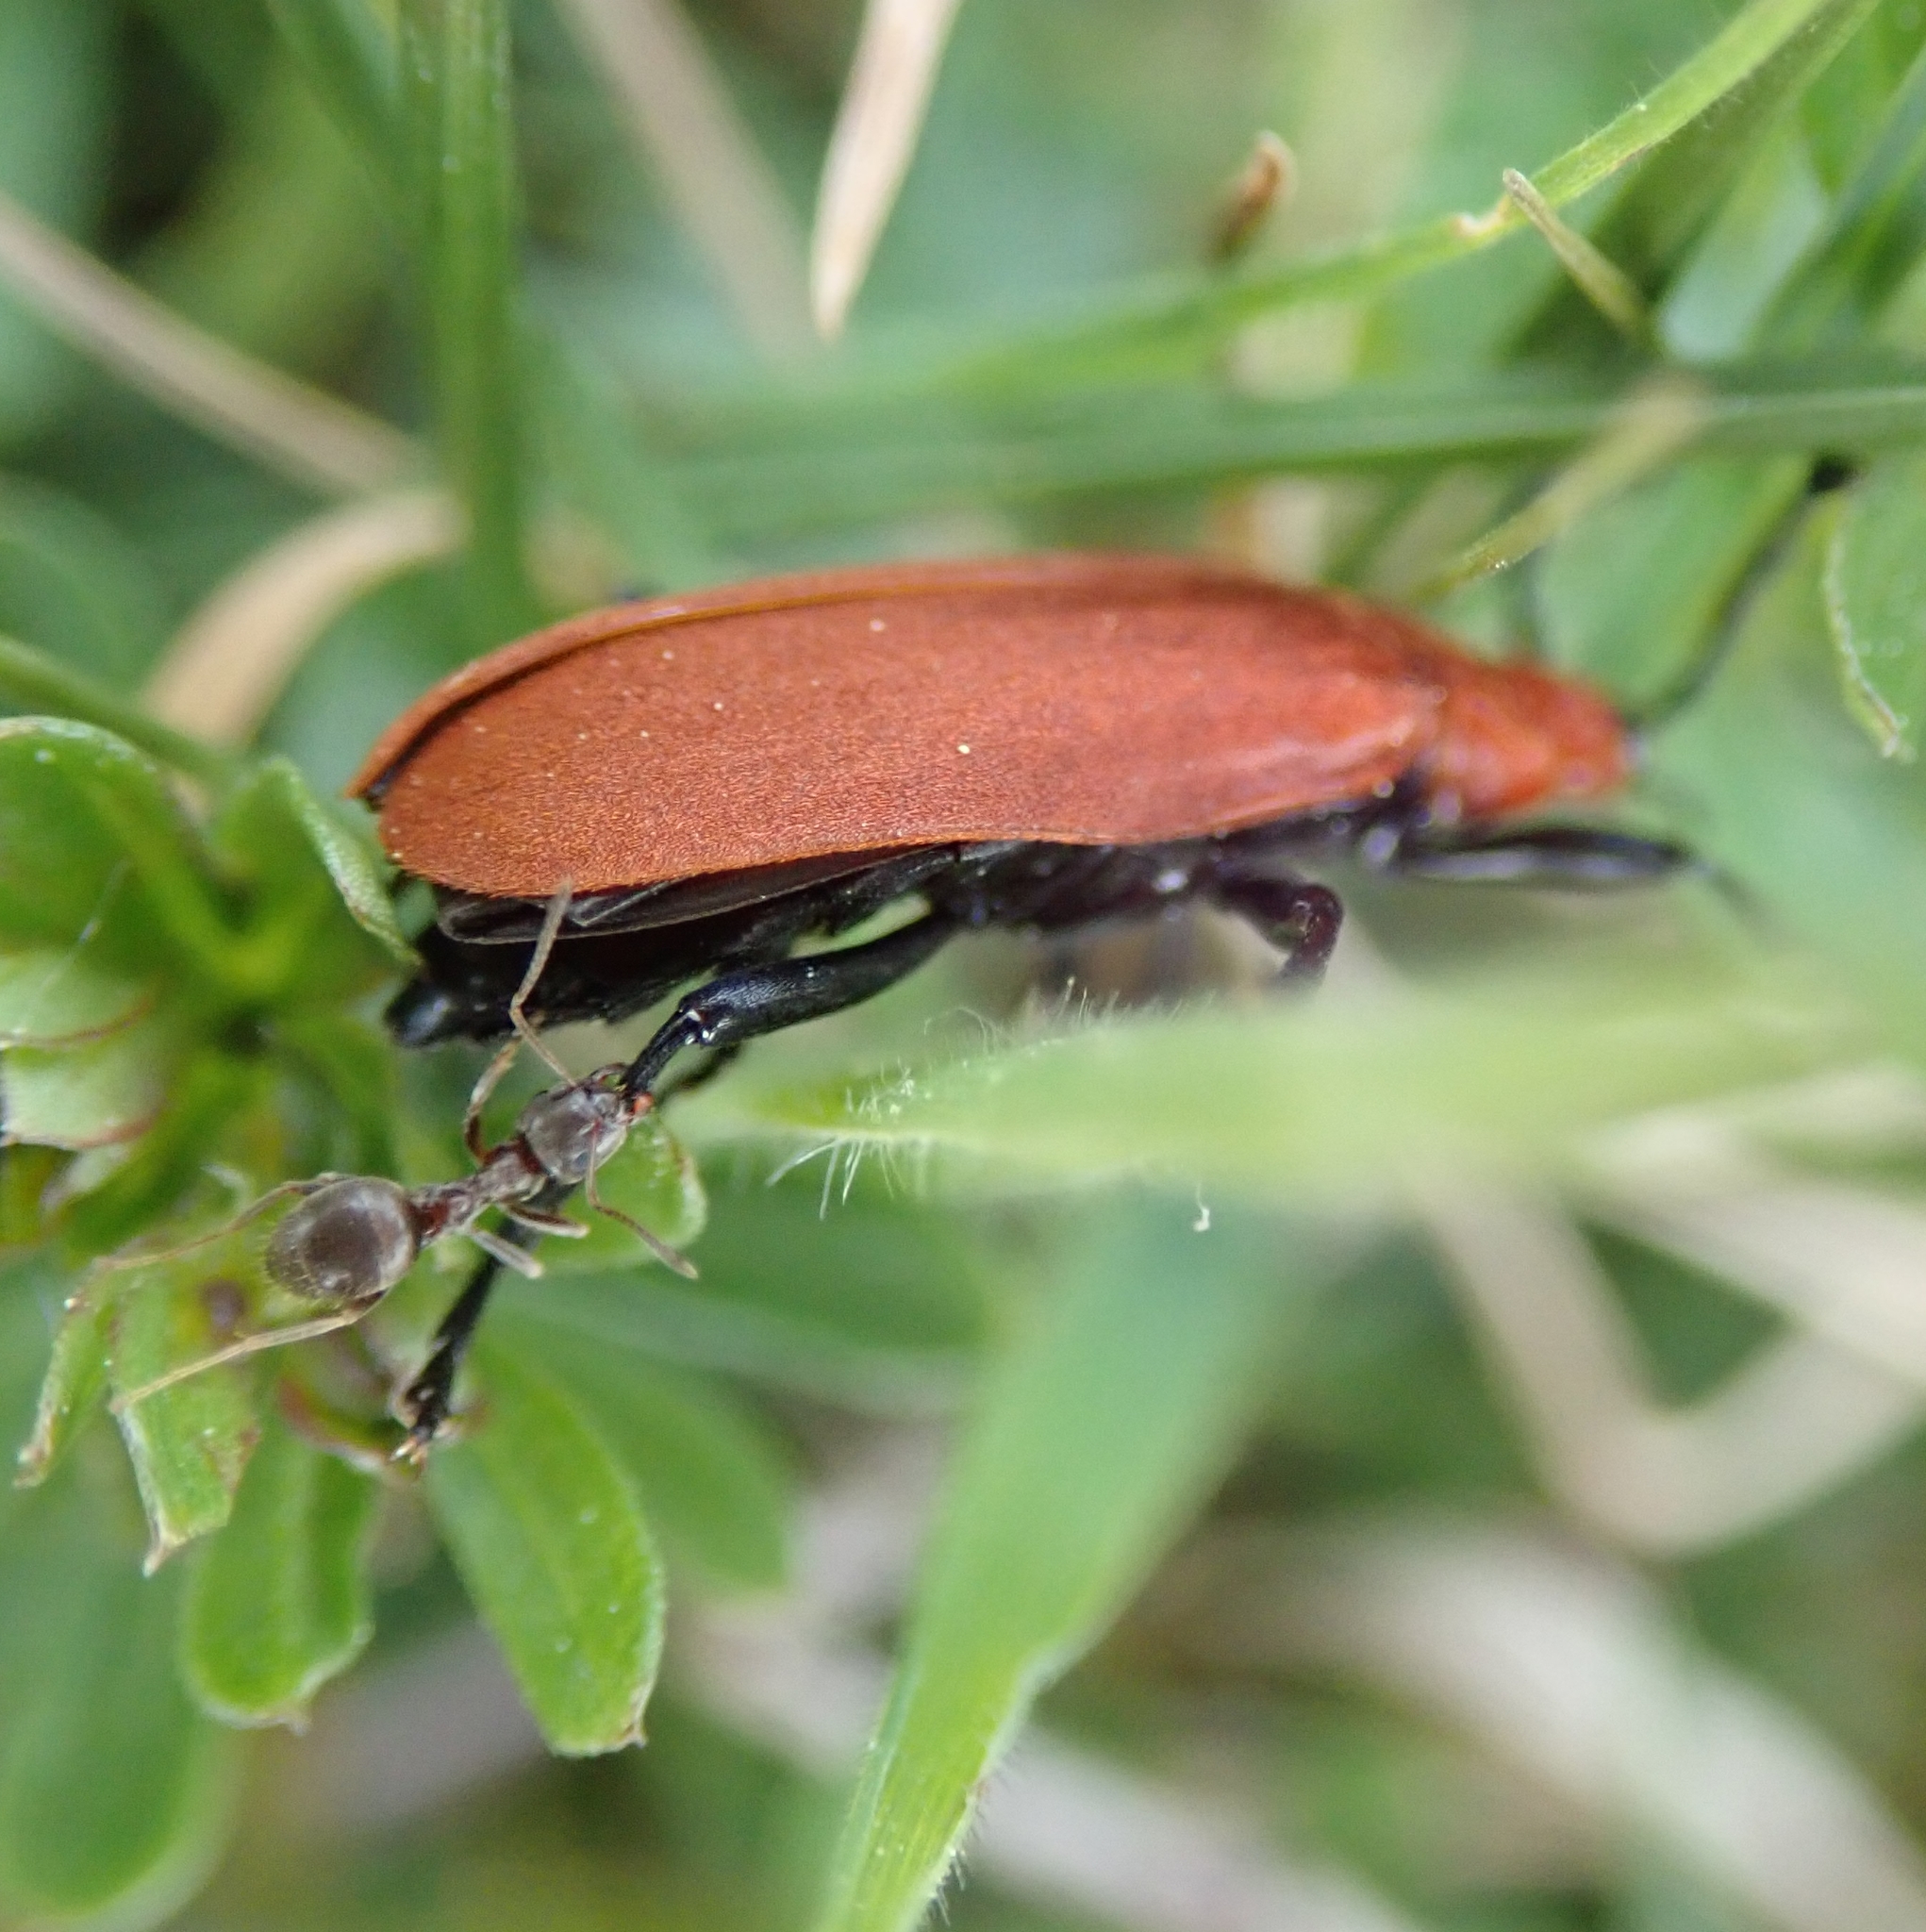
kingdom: Animalia
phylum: Arthropoda
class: Insecta
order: Hymenoptera
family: Formicidae
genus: Lasius
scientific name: Lasius
